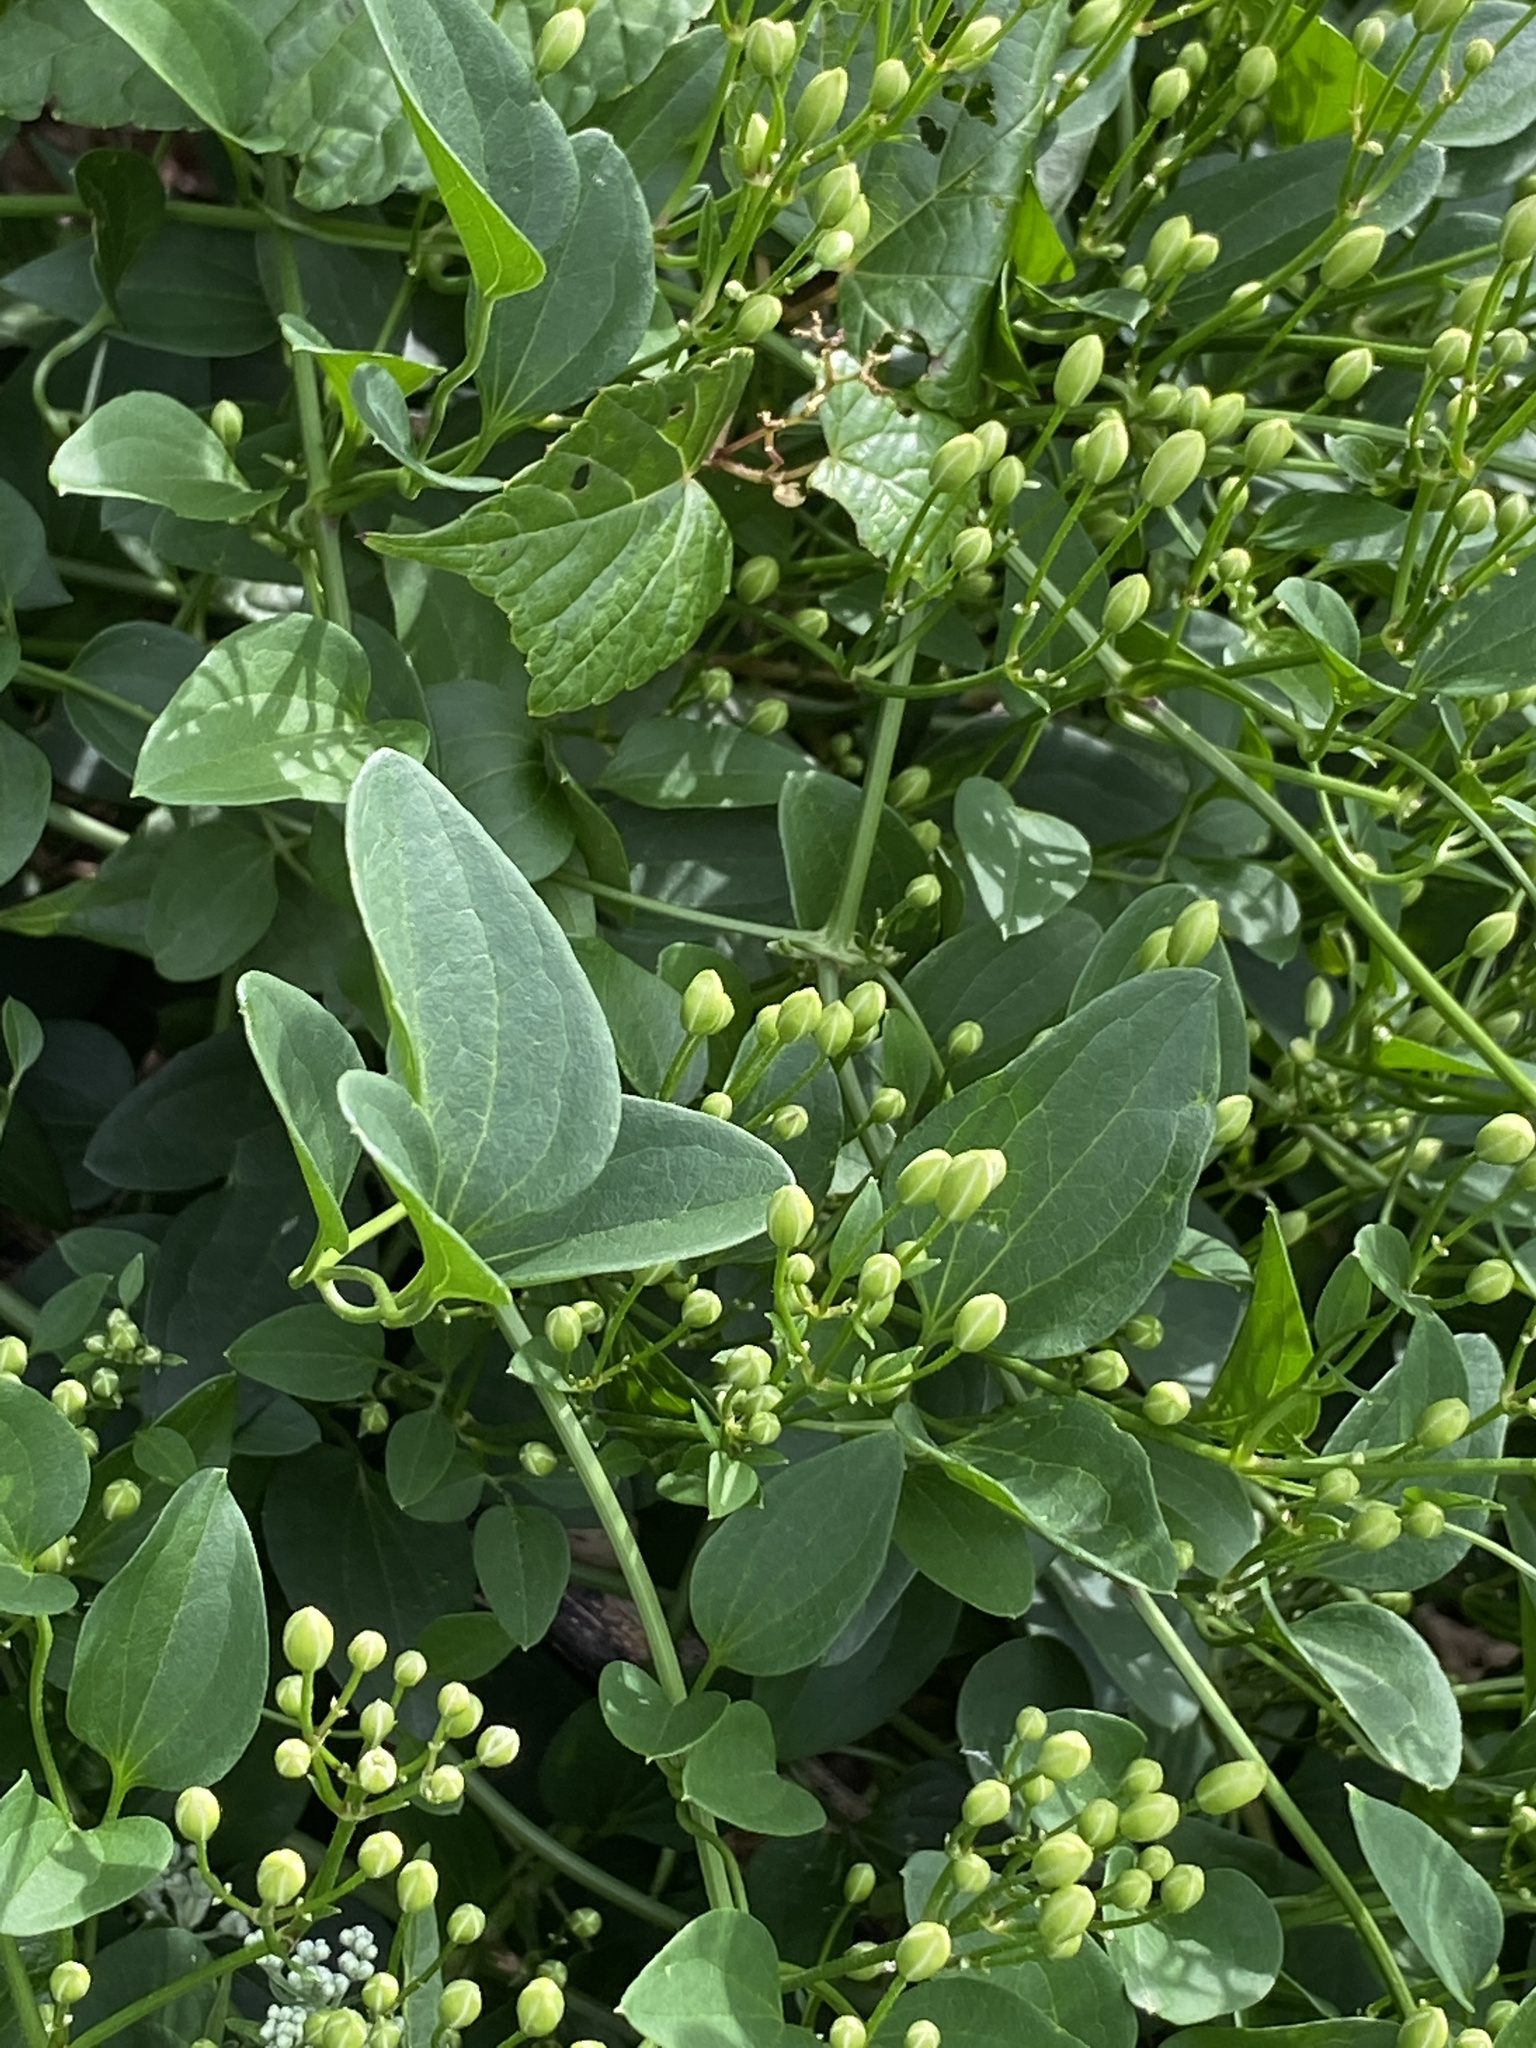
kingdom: Plantae
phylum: Tracheophyta
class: Magnoliopsida
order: Ranunculales
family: Ranunculaceae
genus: Clematis
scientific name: Clematis terniflora
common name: Sweet autumn clematis
